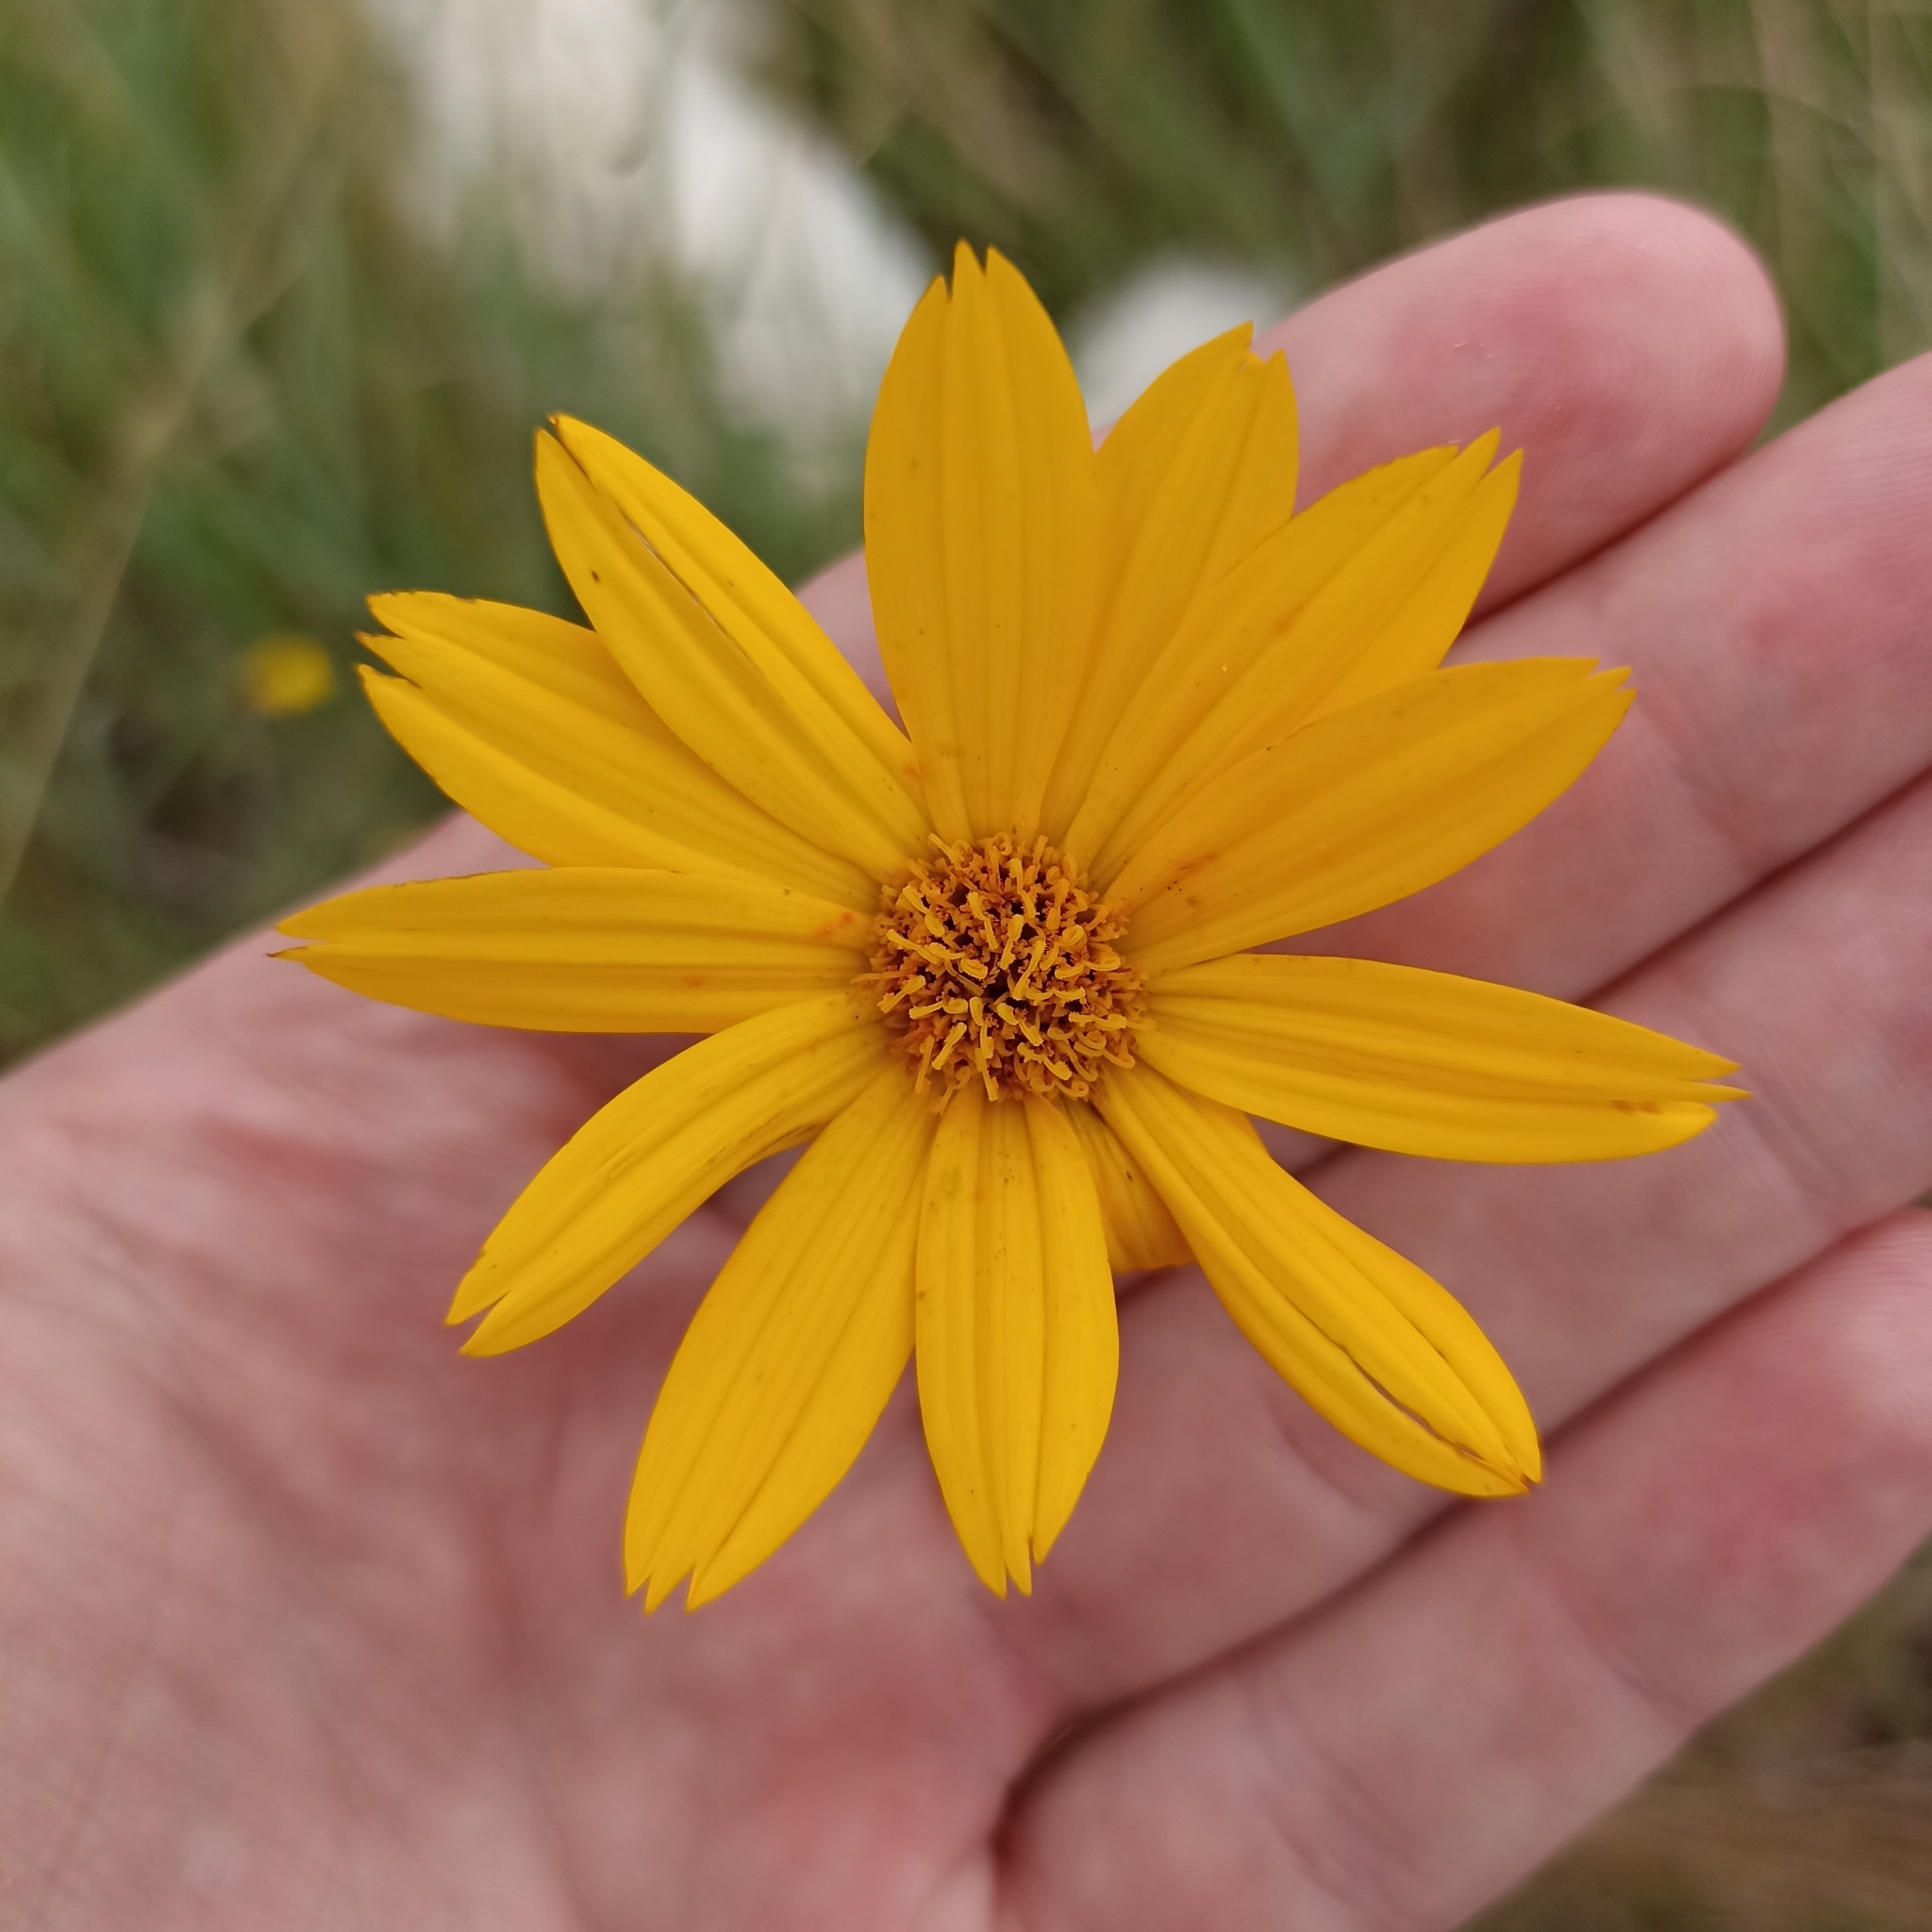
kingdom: Plantae
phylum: Tracheophyta
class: Magnoliopsida
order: Asterales
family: Asteraceae
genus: Wedelia
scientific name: Wedelia montevidensis
